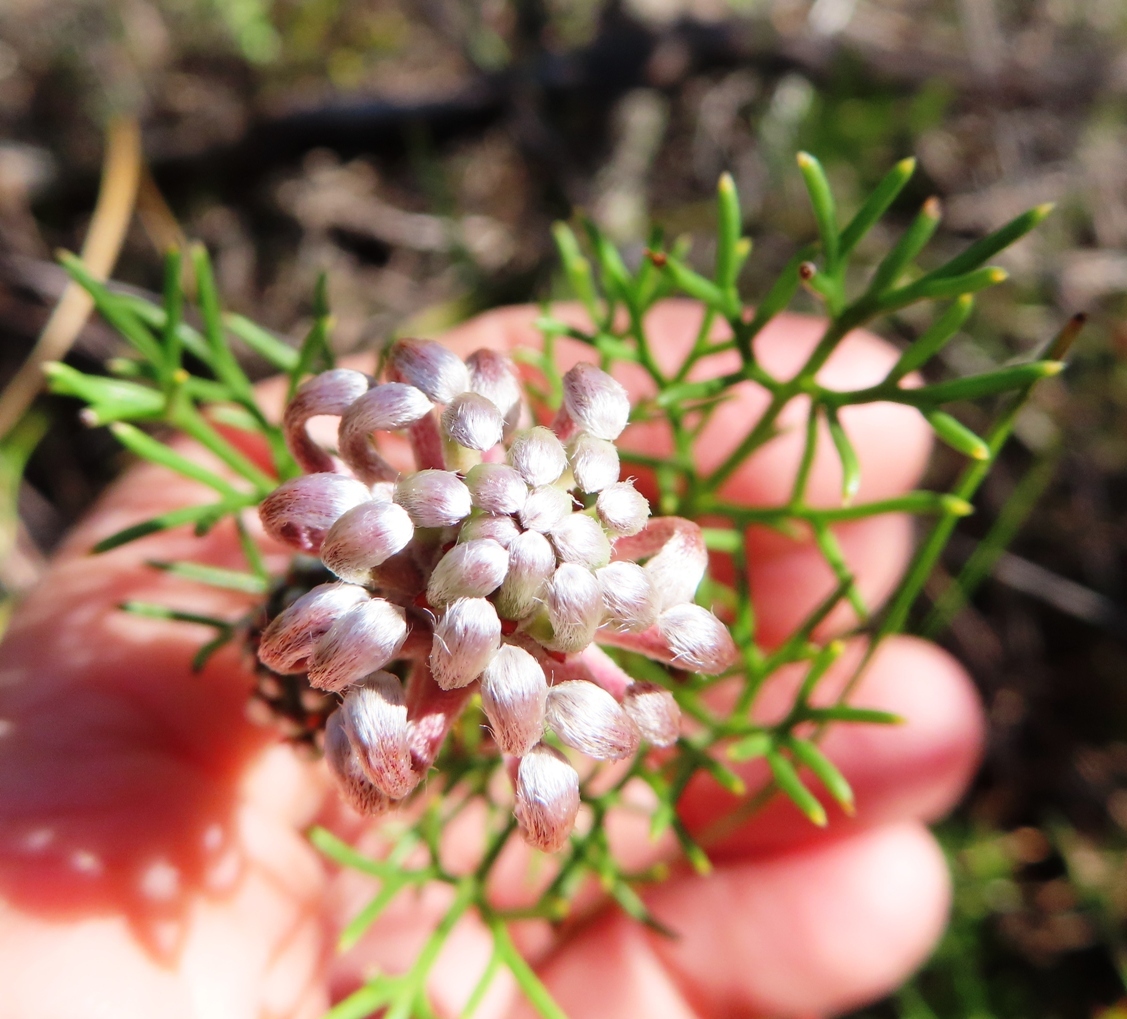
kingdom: Plantae
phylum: Tracheophyta
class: Magnoliopsida
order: Proteales
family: Proteaceae
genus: Serruria
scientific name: Serruria
